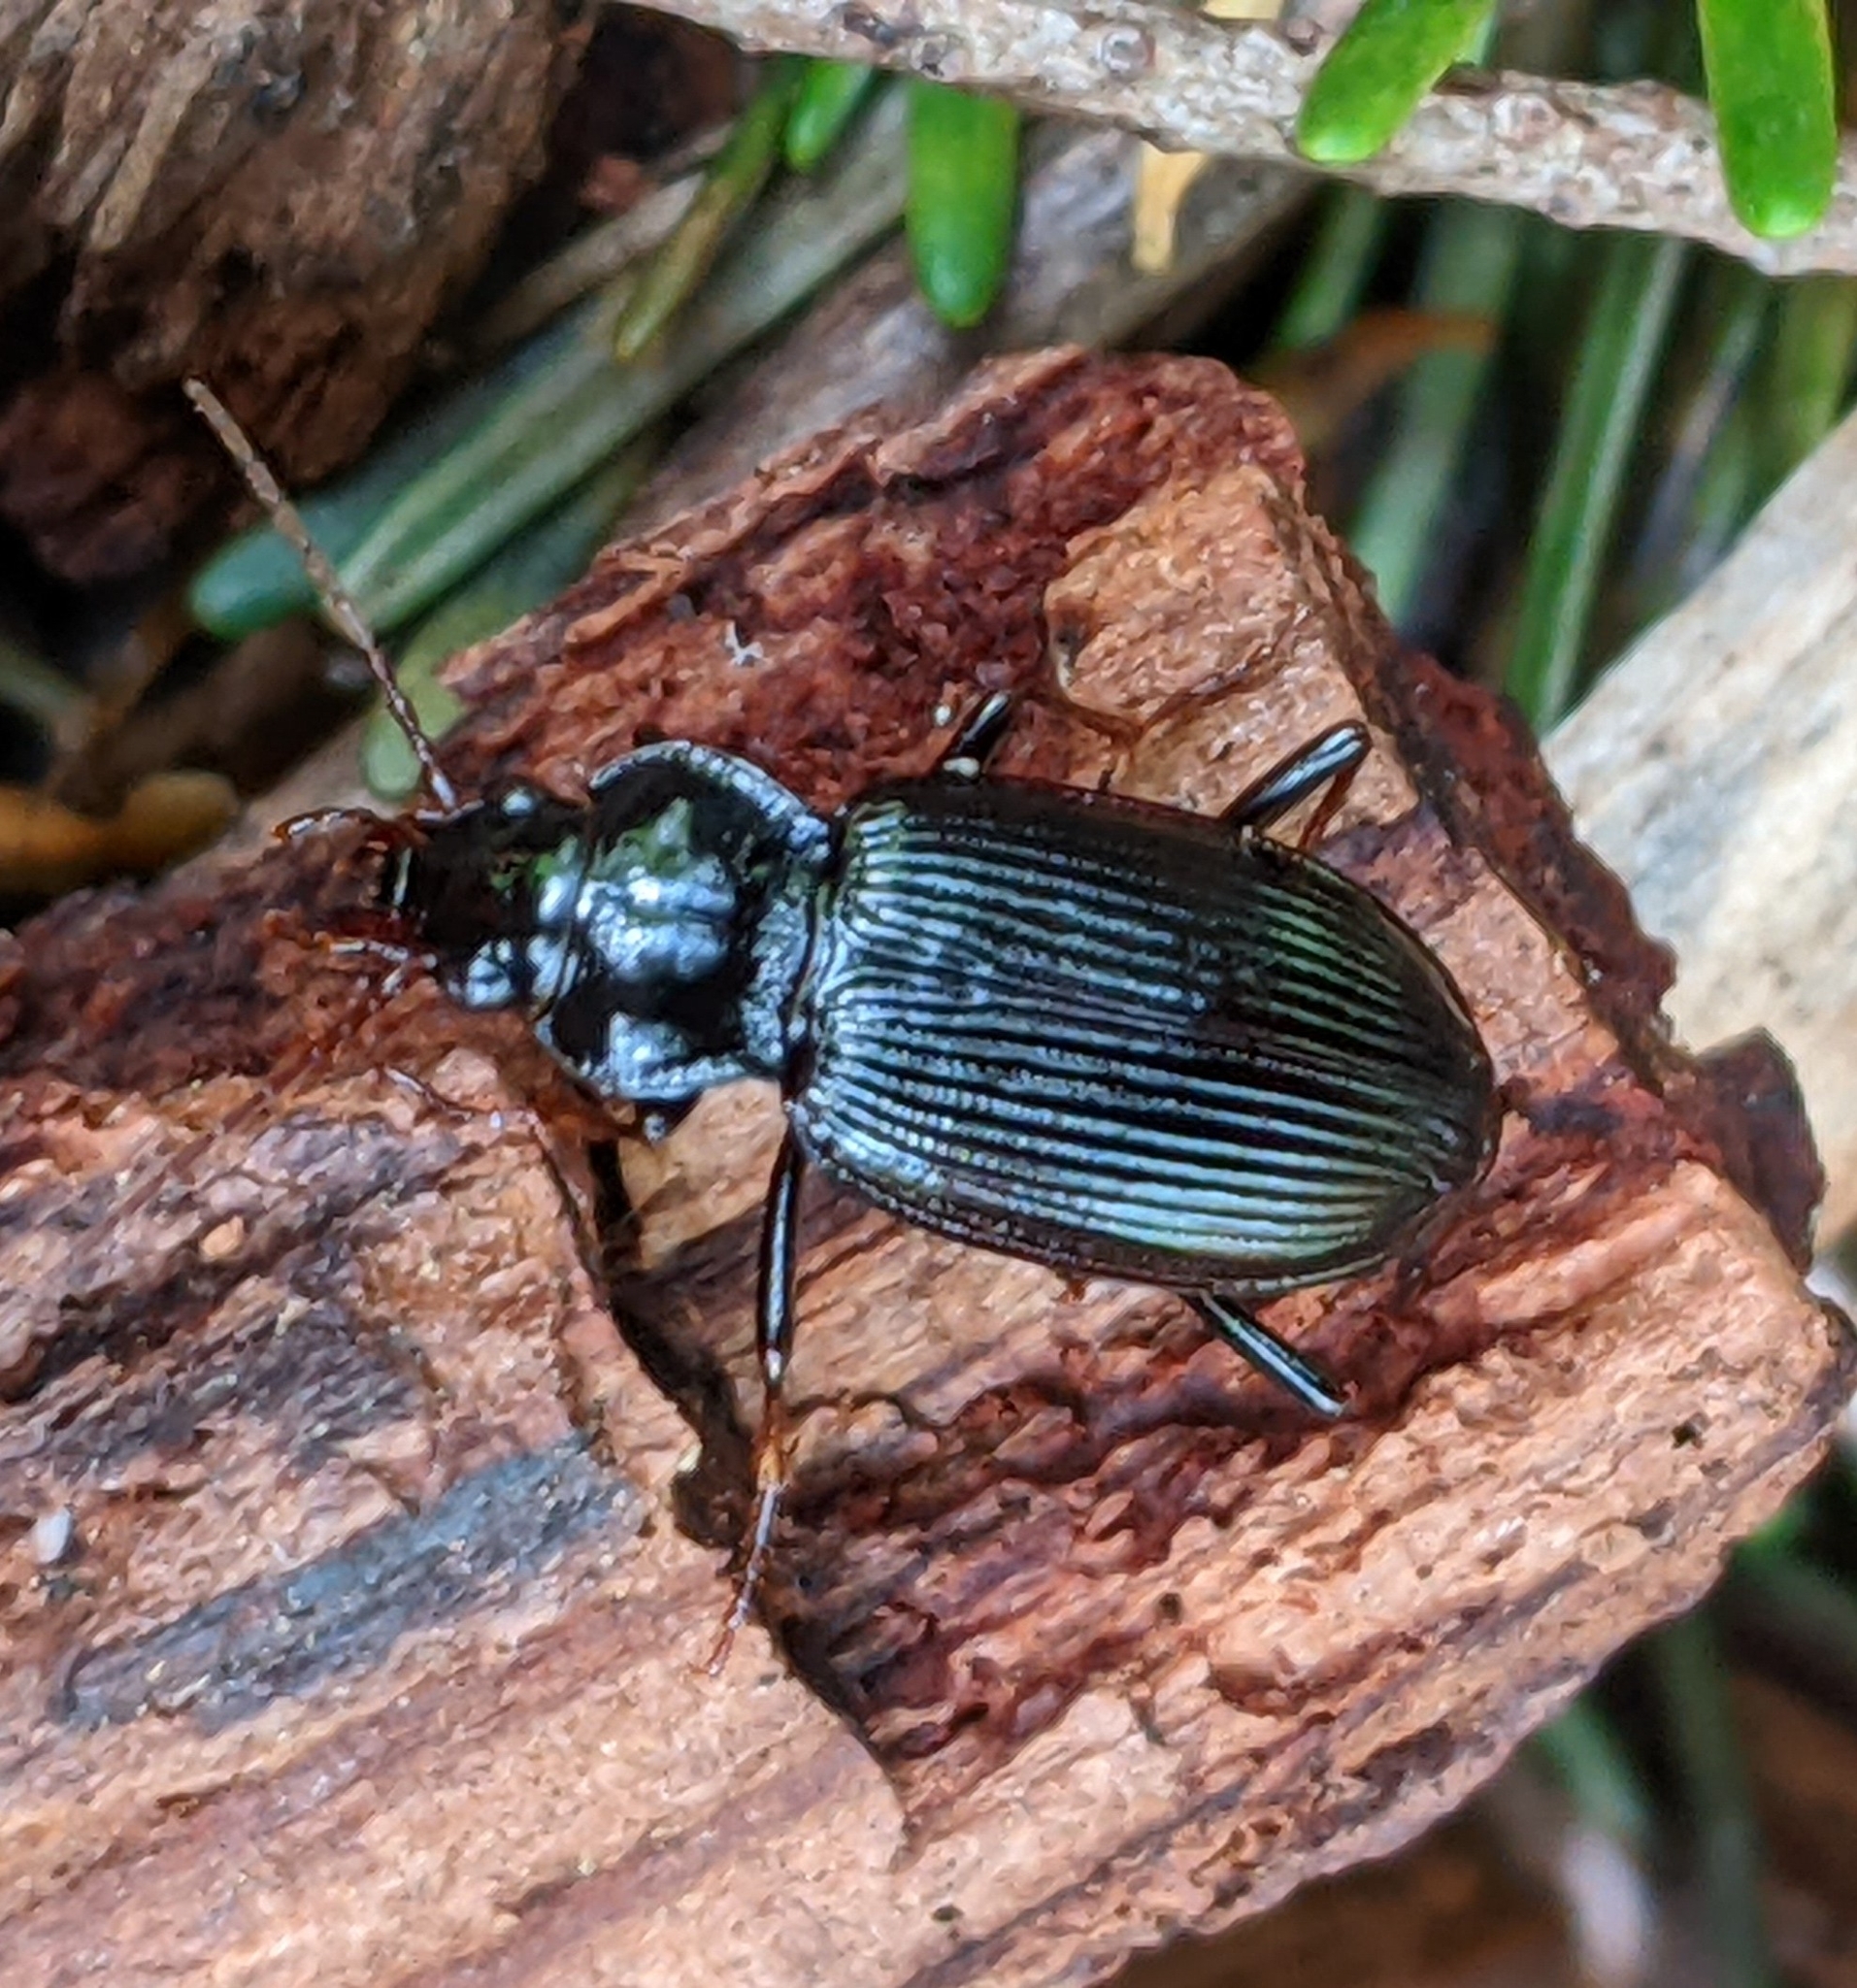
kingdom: Animalia
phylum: Arthropoda
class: Insecta
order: Coleoptera
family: Carabidae
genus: Nebria
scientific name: Nebria brevicollis
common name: Short-necked gazelle beetle
